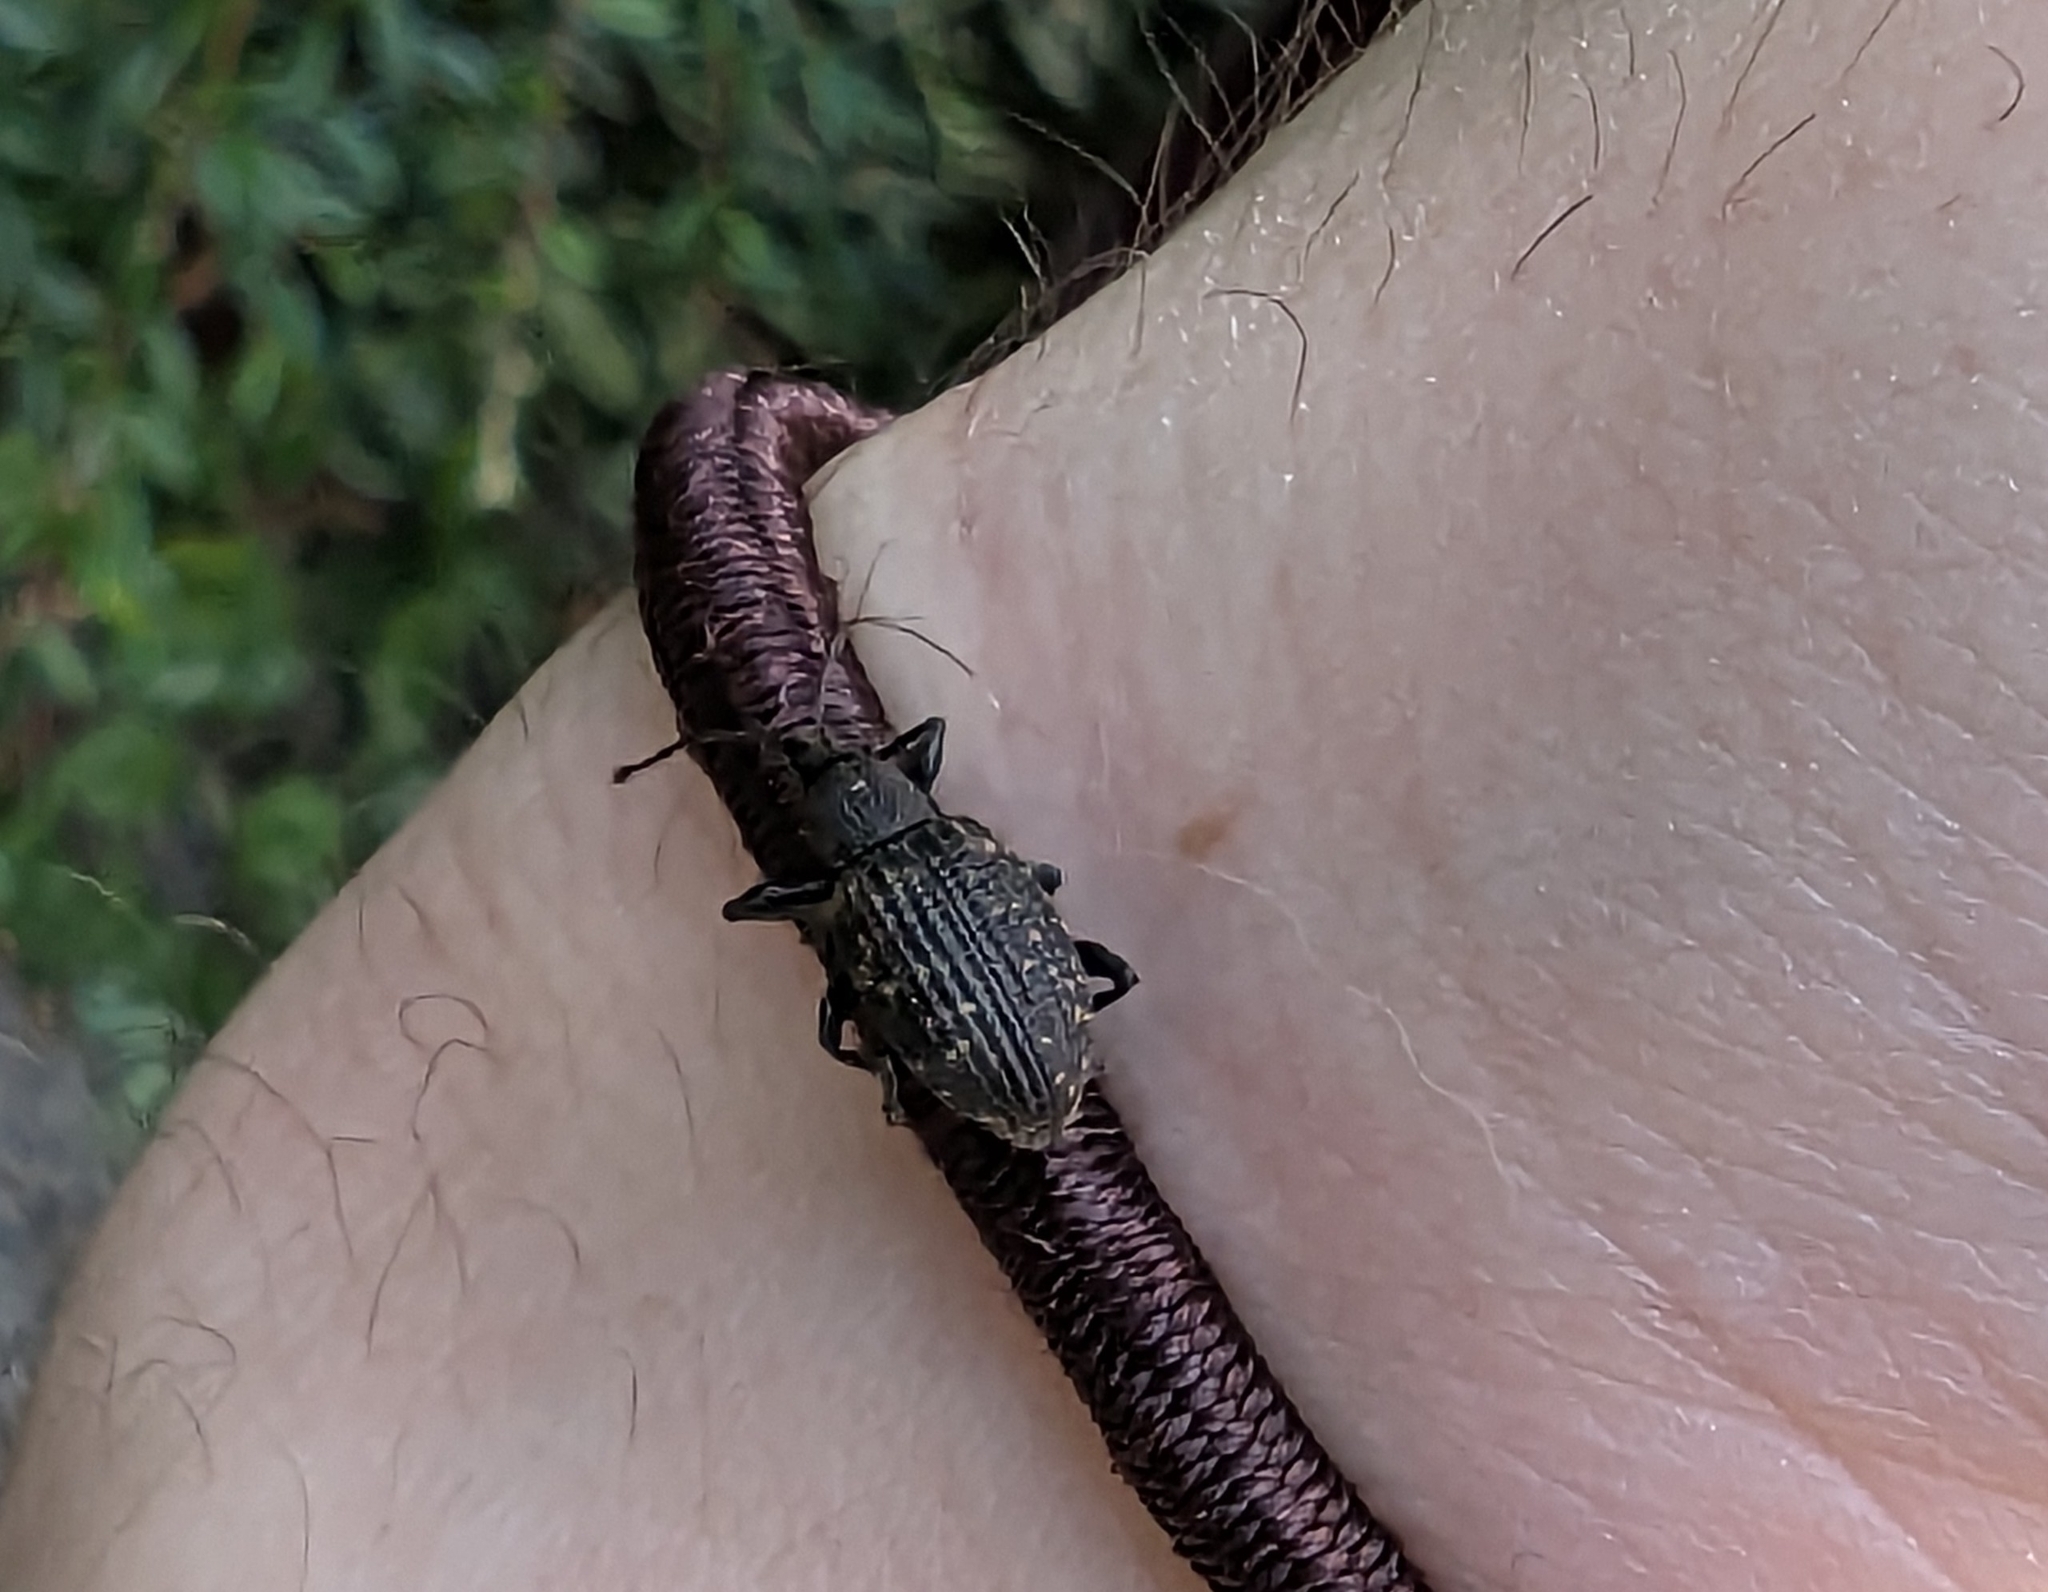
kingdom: Animalia
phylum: Arthropoda
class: Insecta
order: Coleoptera
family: Curculionidae
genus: Otiorhynchus
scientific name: Otiorhynchus sulcatus
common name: Black vine weevil
